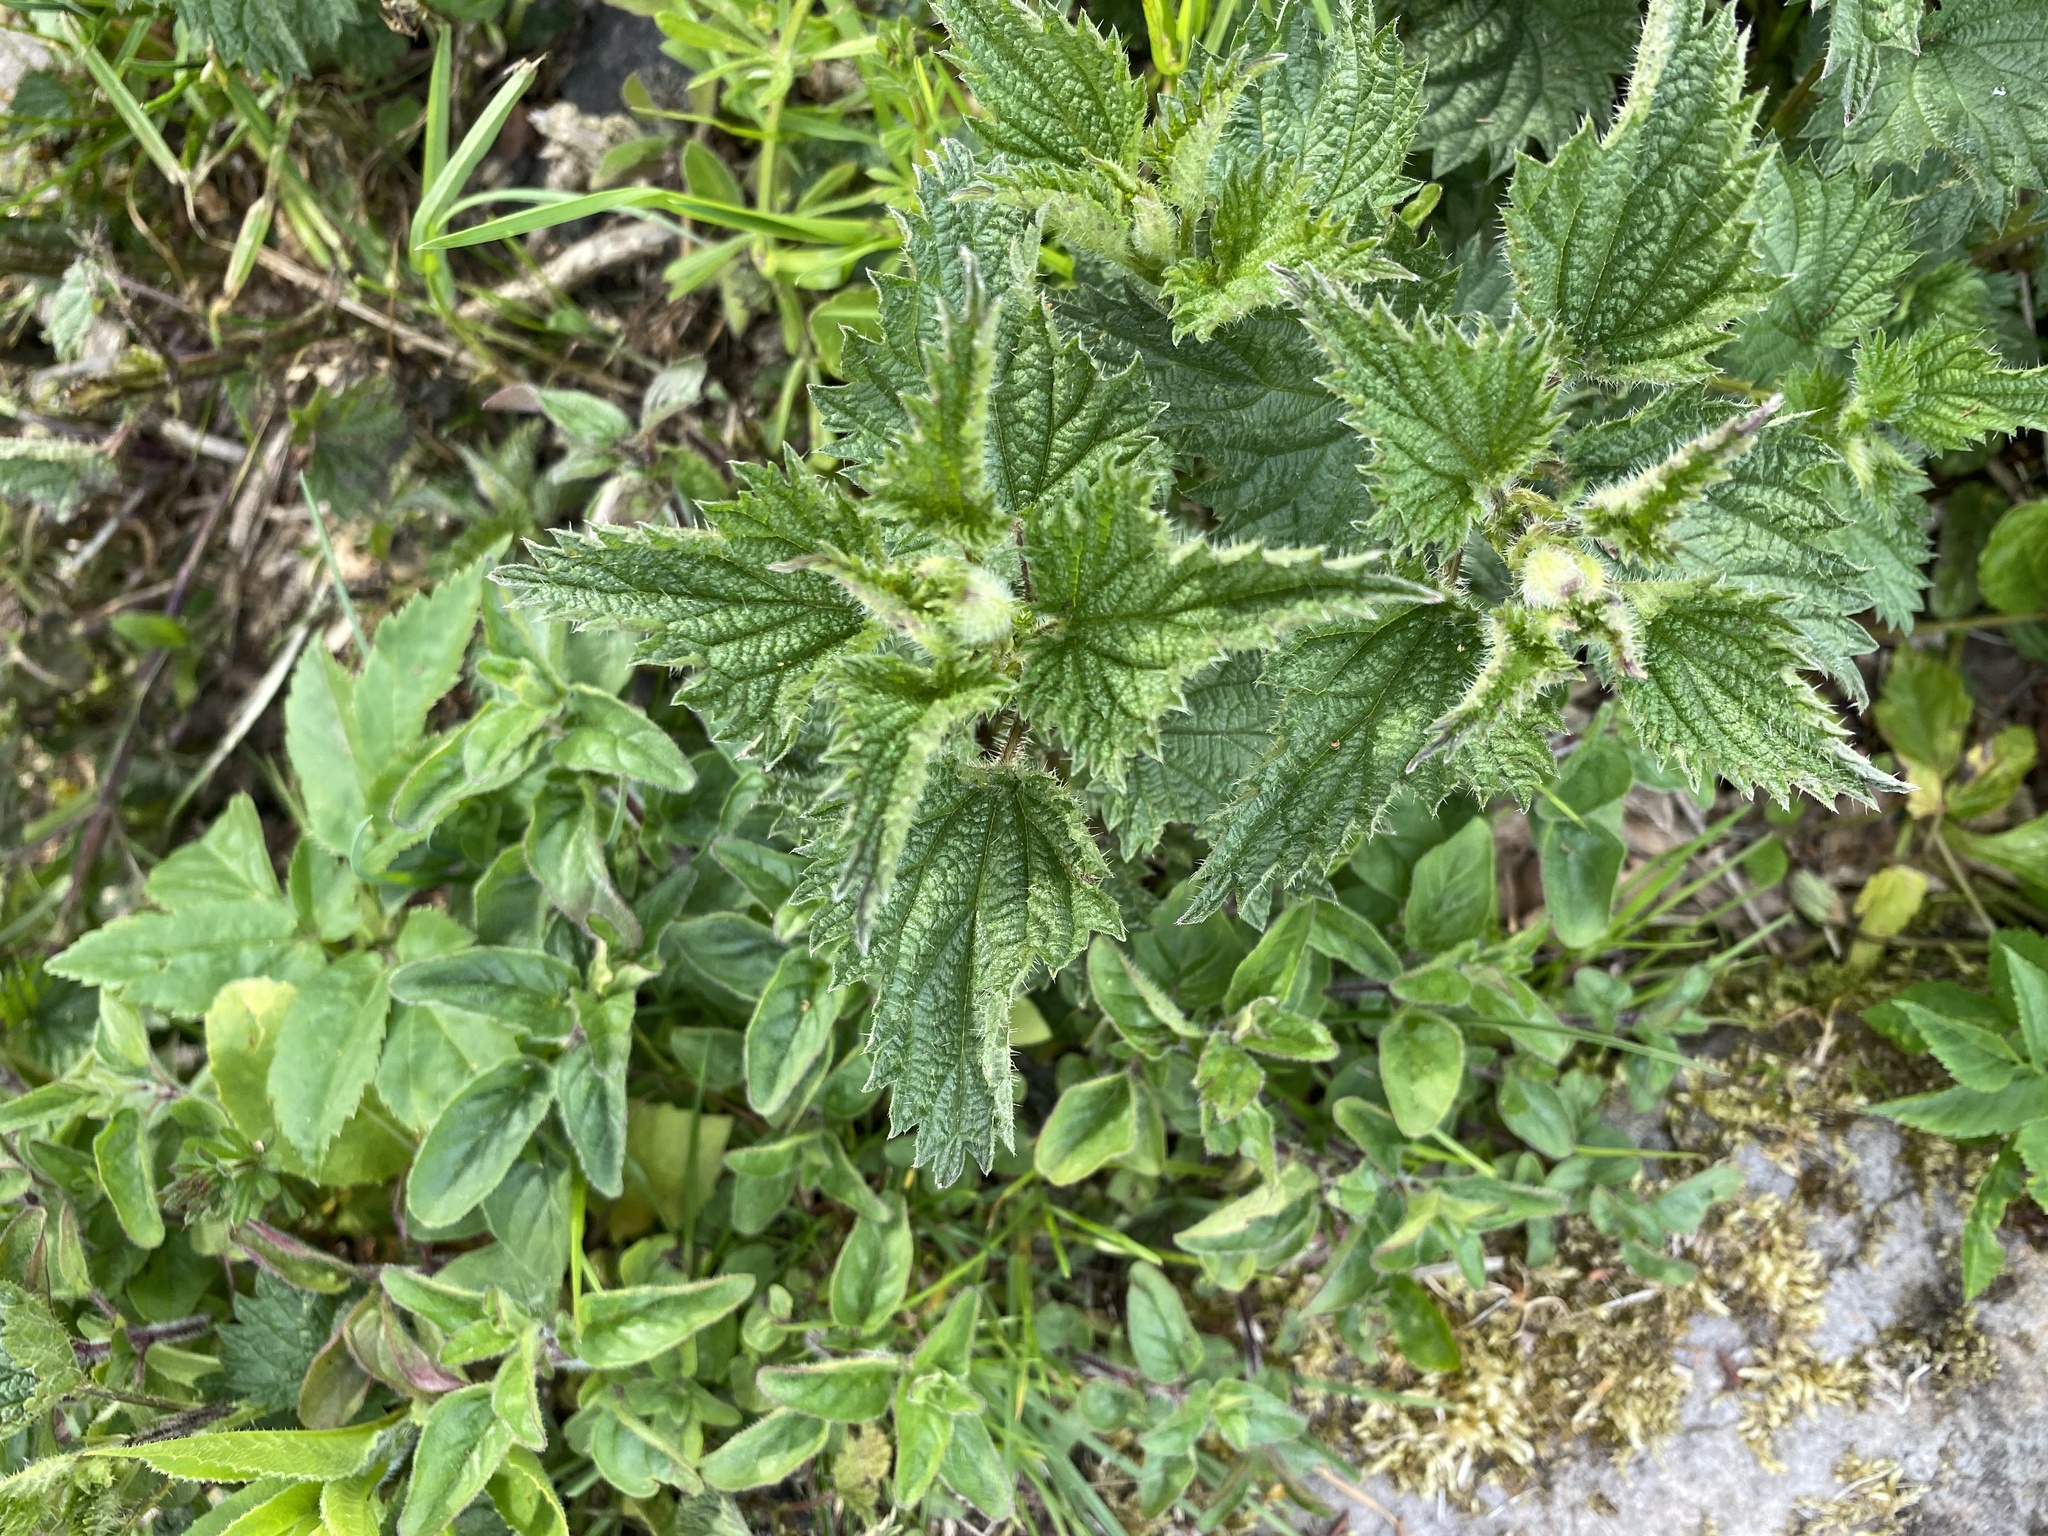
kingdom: Plantae
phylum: Tracheophyta
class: Magnoliopsida
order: Rosales
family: Urticaceae
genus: Urtica
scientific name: Urtica dioica
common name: Common nettle
